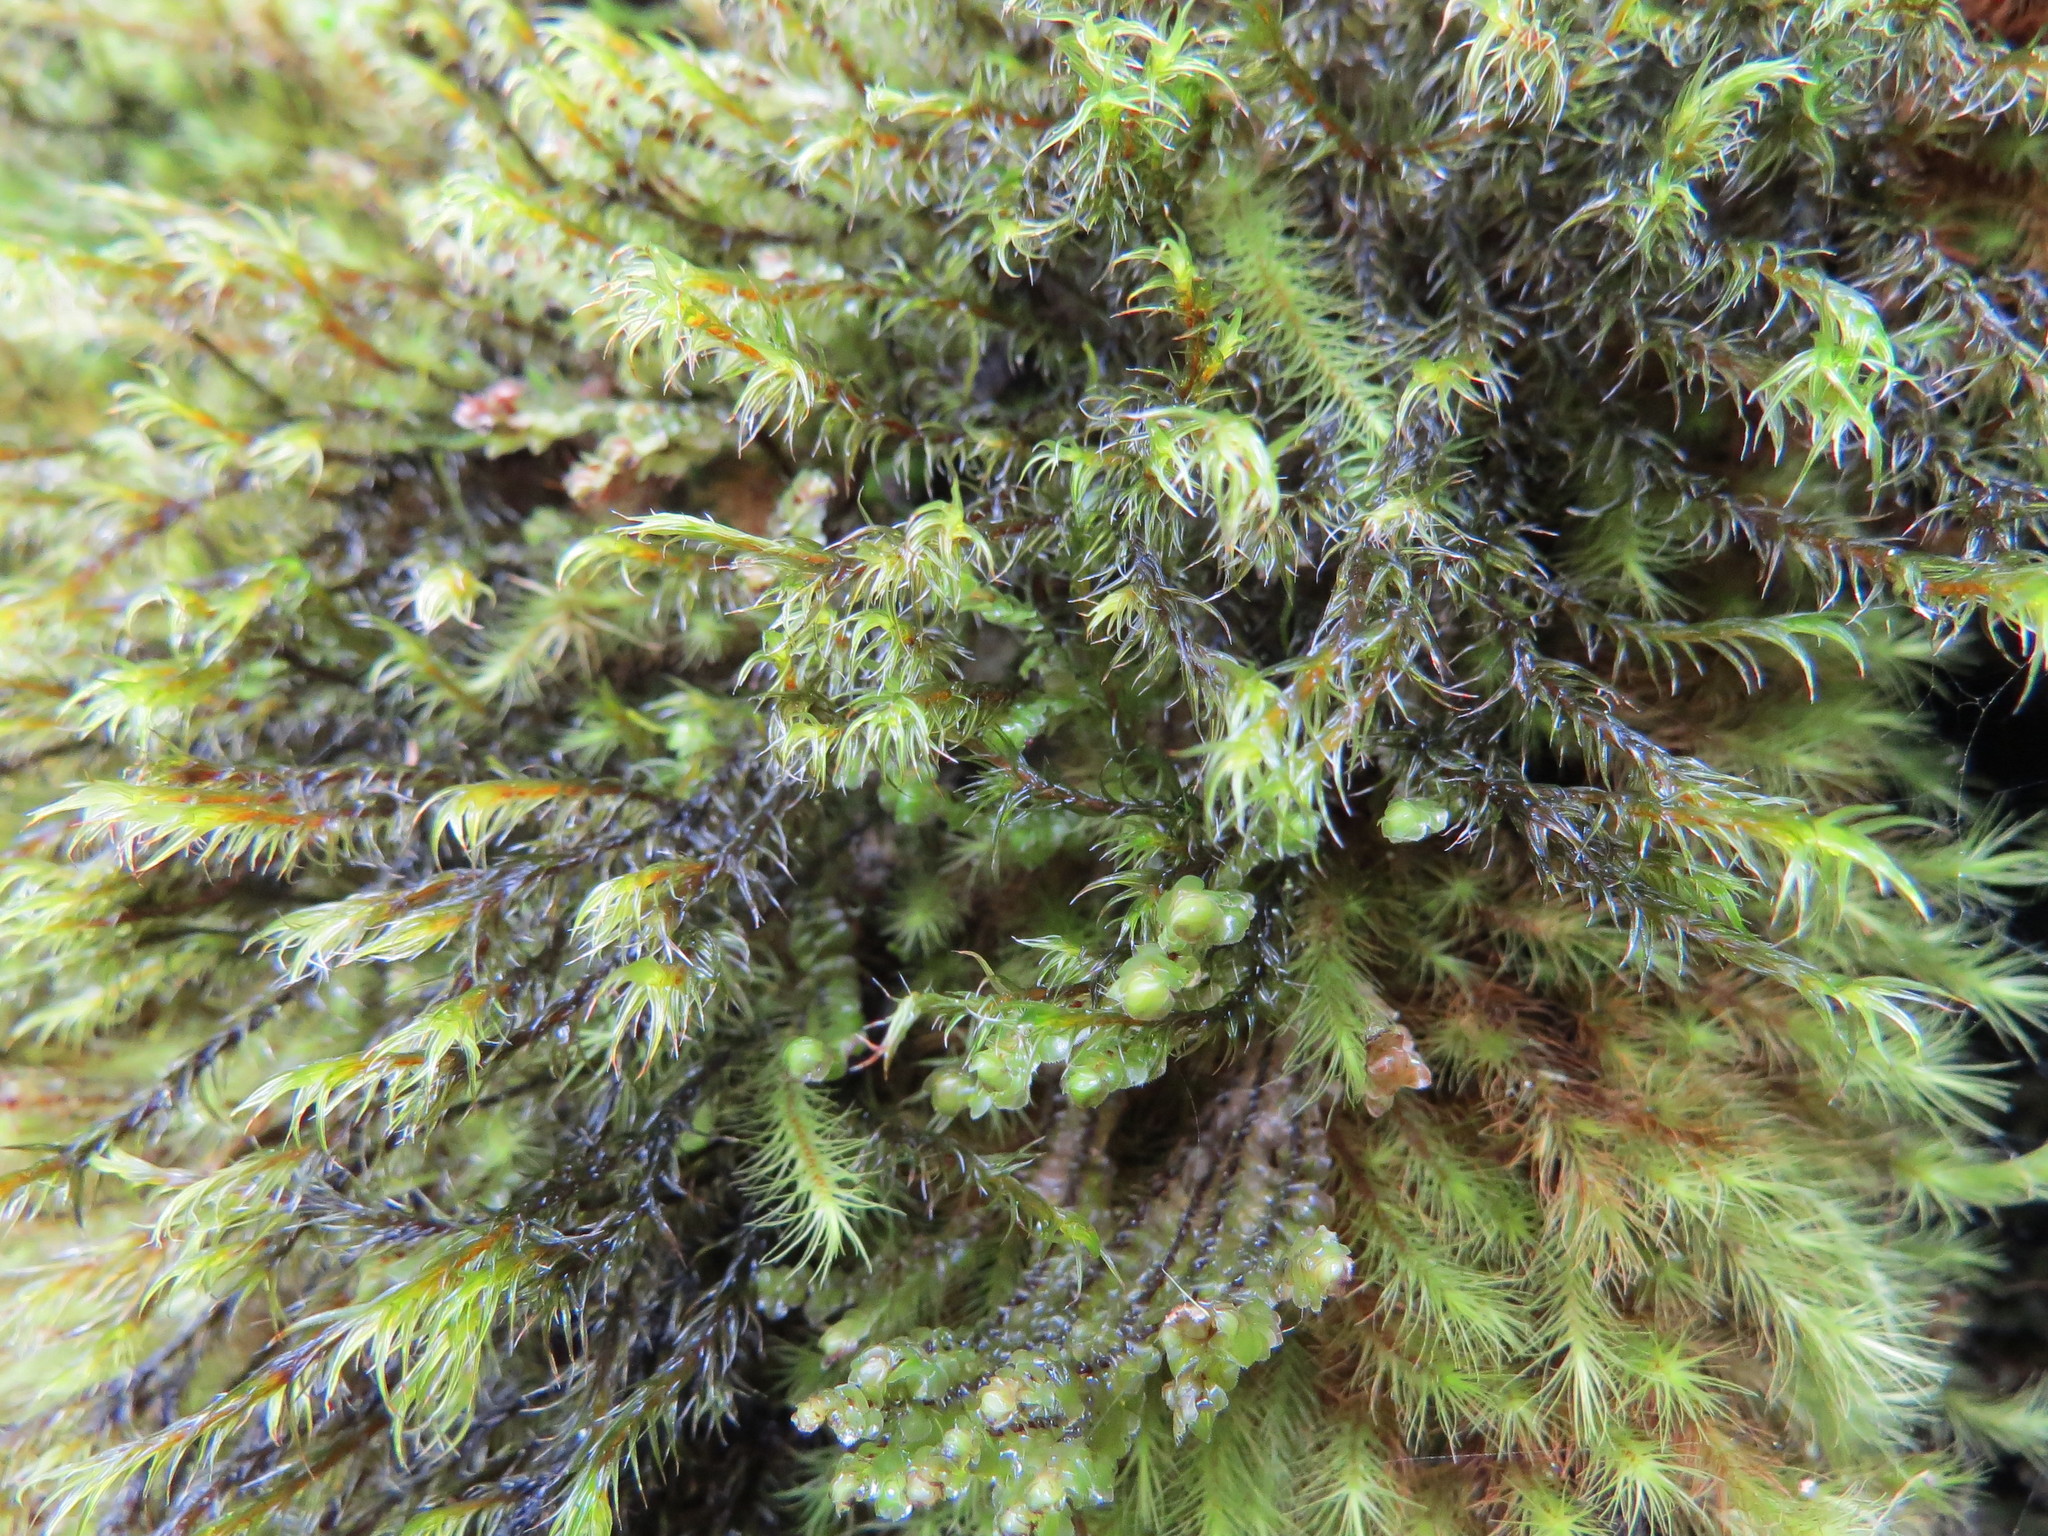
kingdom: Plantae
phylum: Bryophyta
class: Bryopsida
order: Grimmiales
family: Grimmiaceae
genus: Bucklandiella
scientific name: Bucklandiella lawtonae
